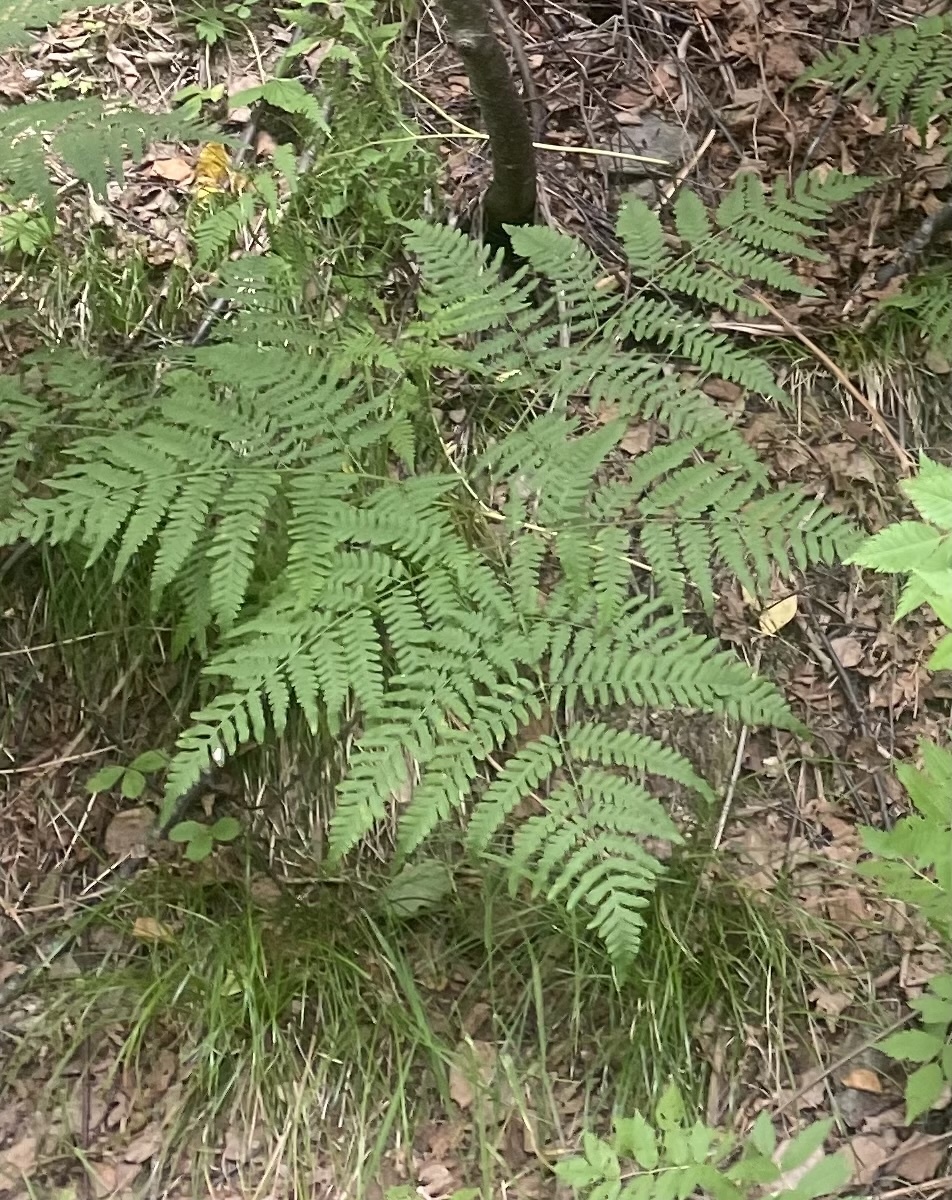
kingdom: Plantae
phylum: Tracheophyta
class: Polypodiopsida
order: Polypodiales
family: Dennstaedtiaceae
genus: Pteridium
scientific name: Pteridium aquilinum
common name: Bracken
